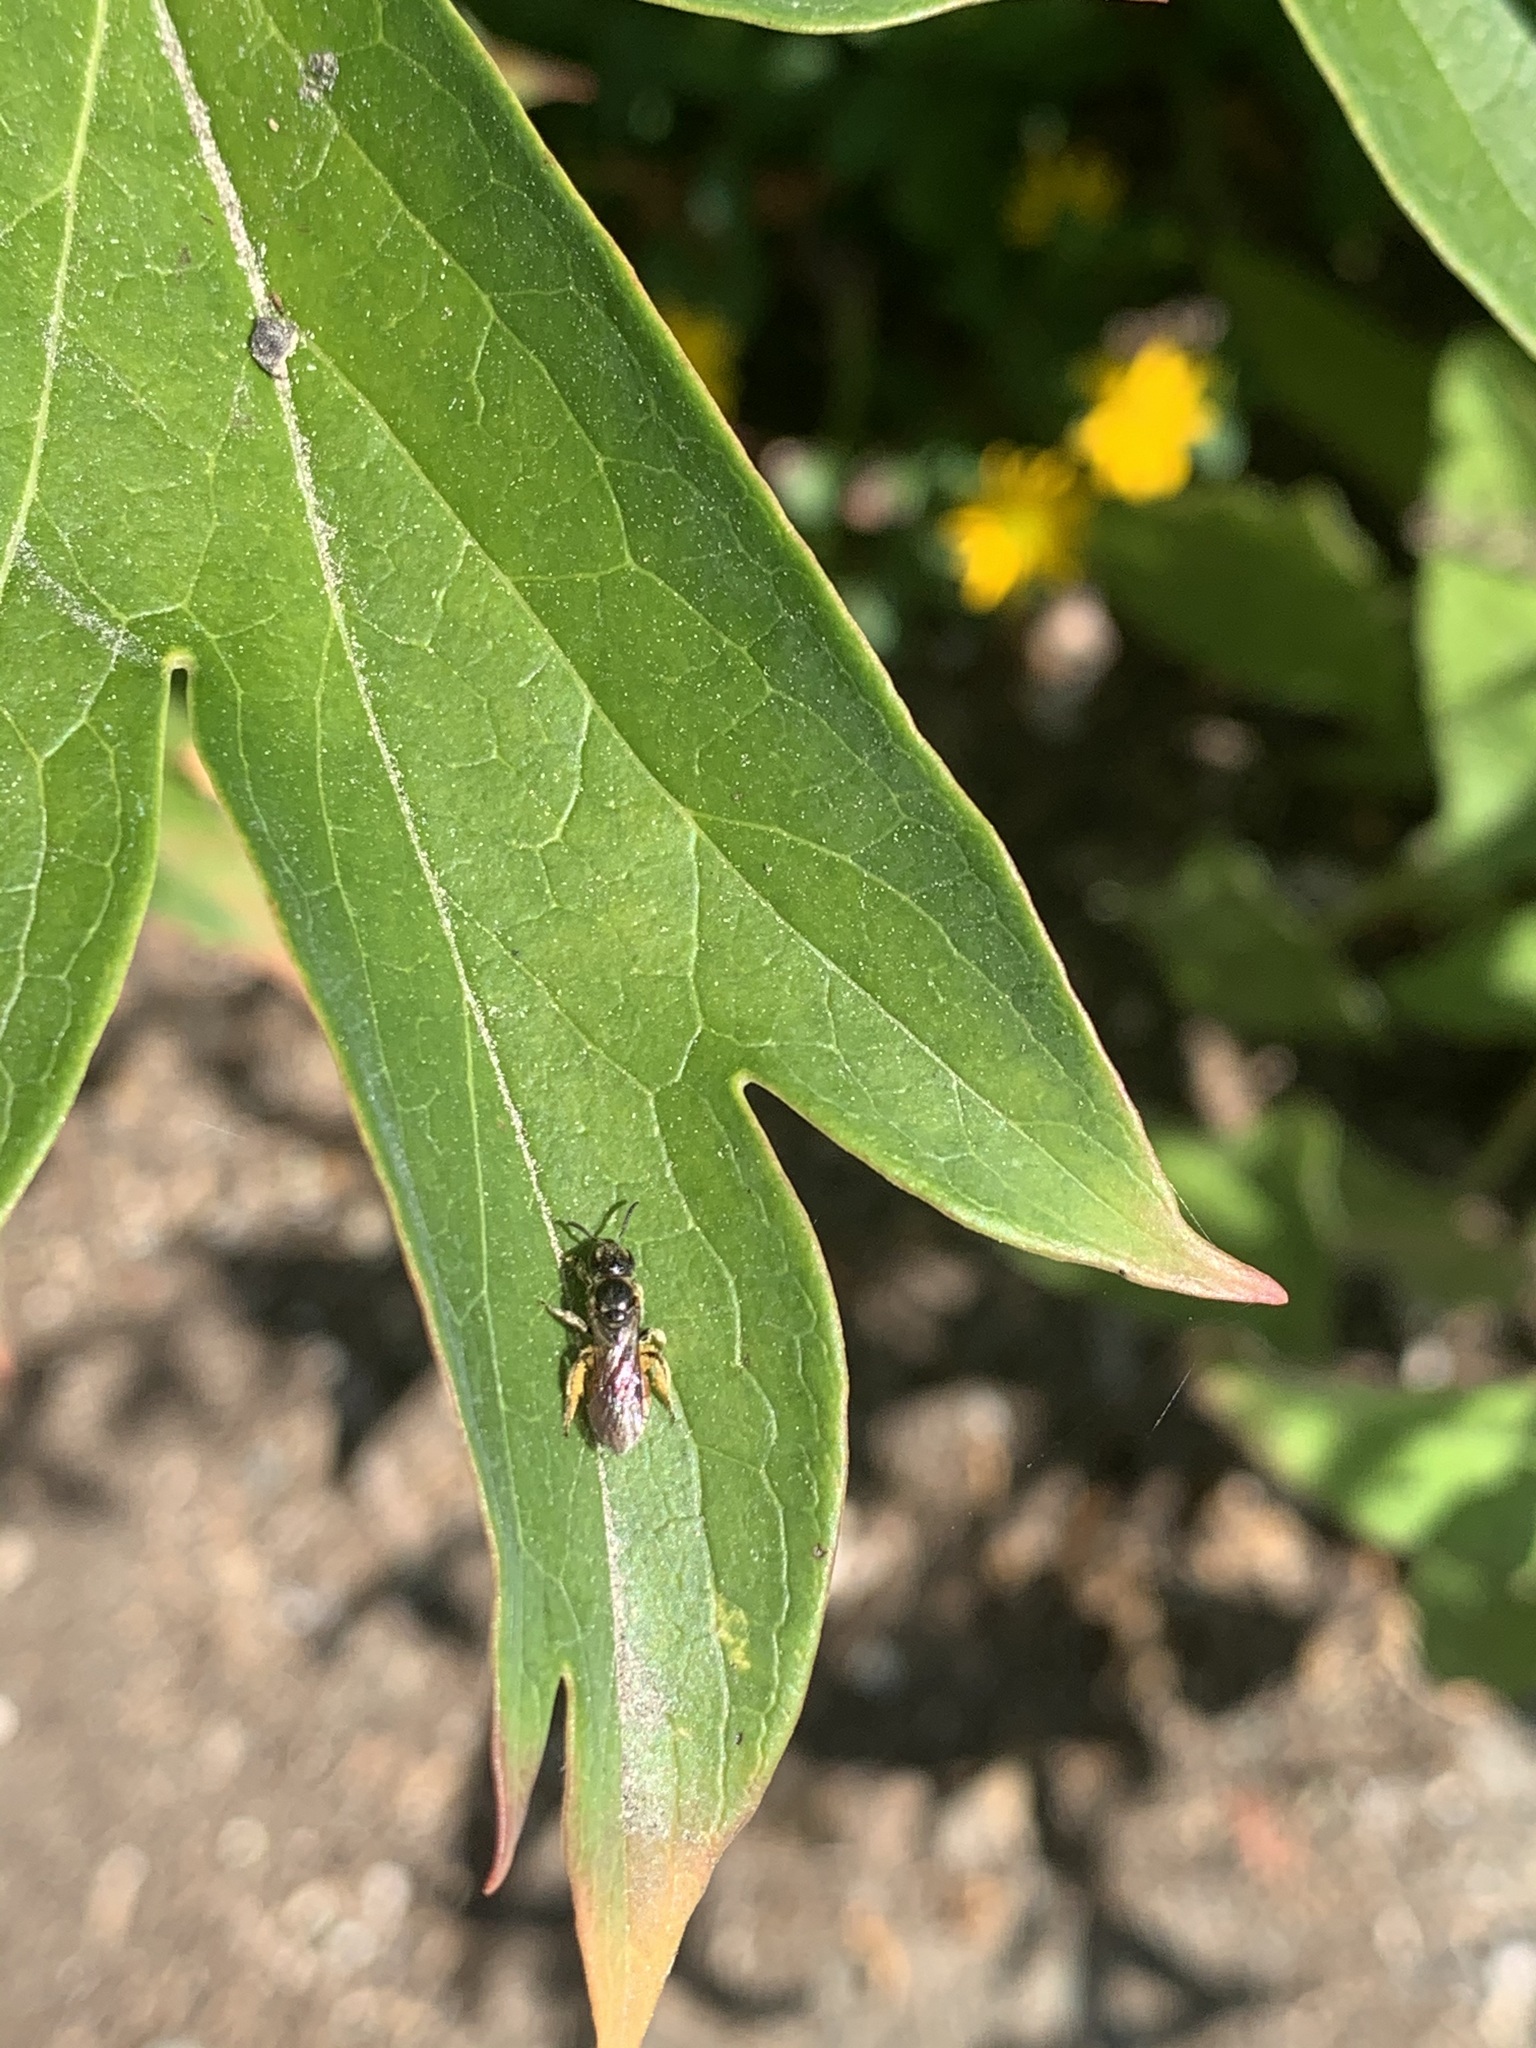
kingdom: Animalia
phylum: Arthropoda
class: Insecta
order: Hymenoptera
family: Halictidae
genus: Lasioglossum
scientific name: Lasioglossum ovaliceps
